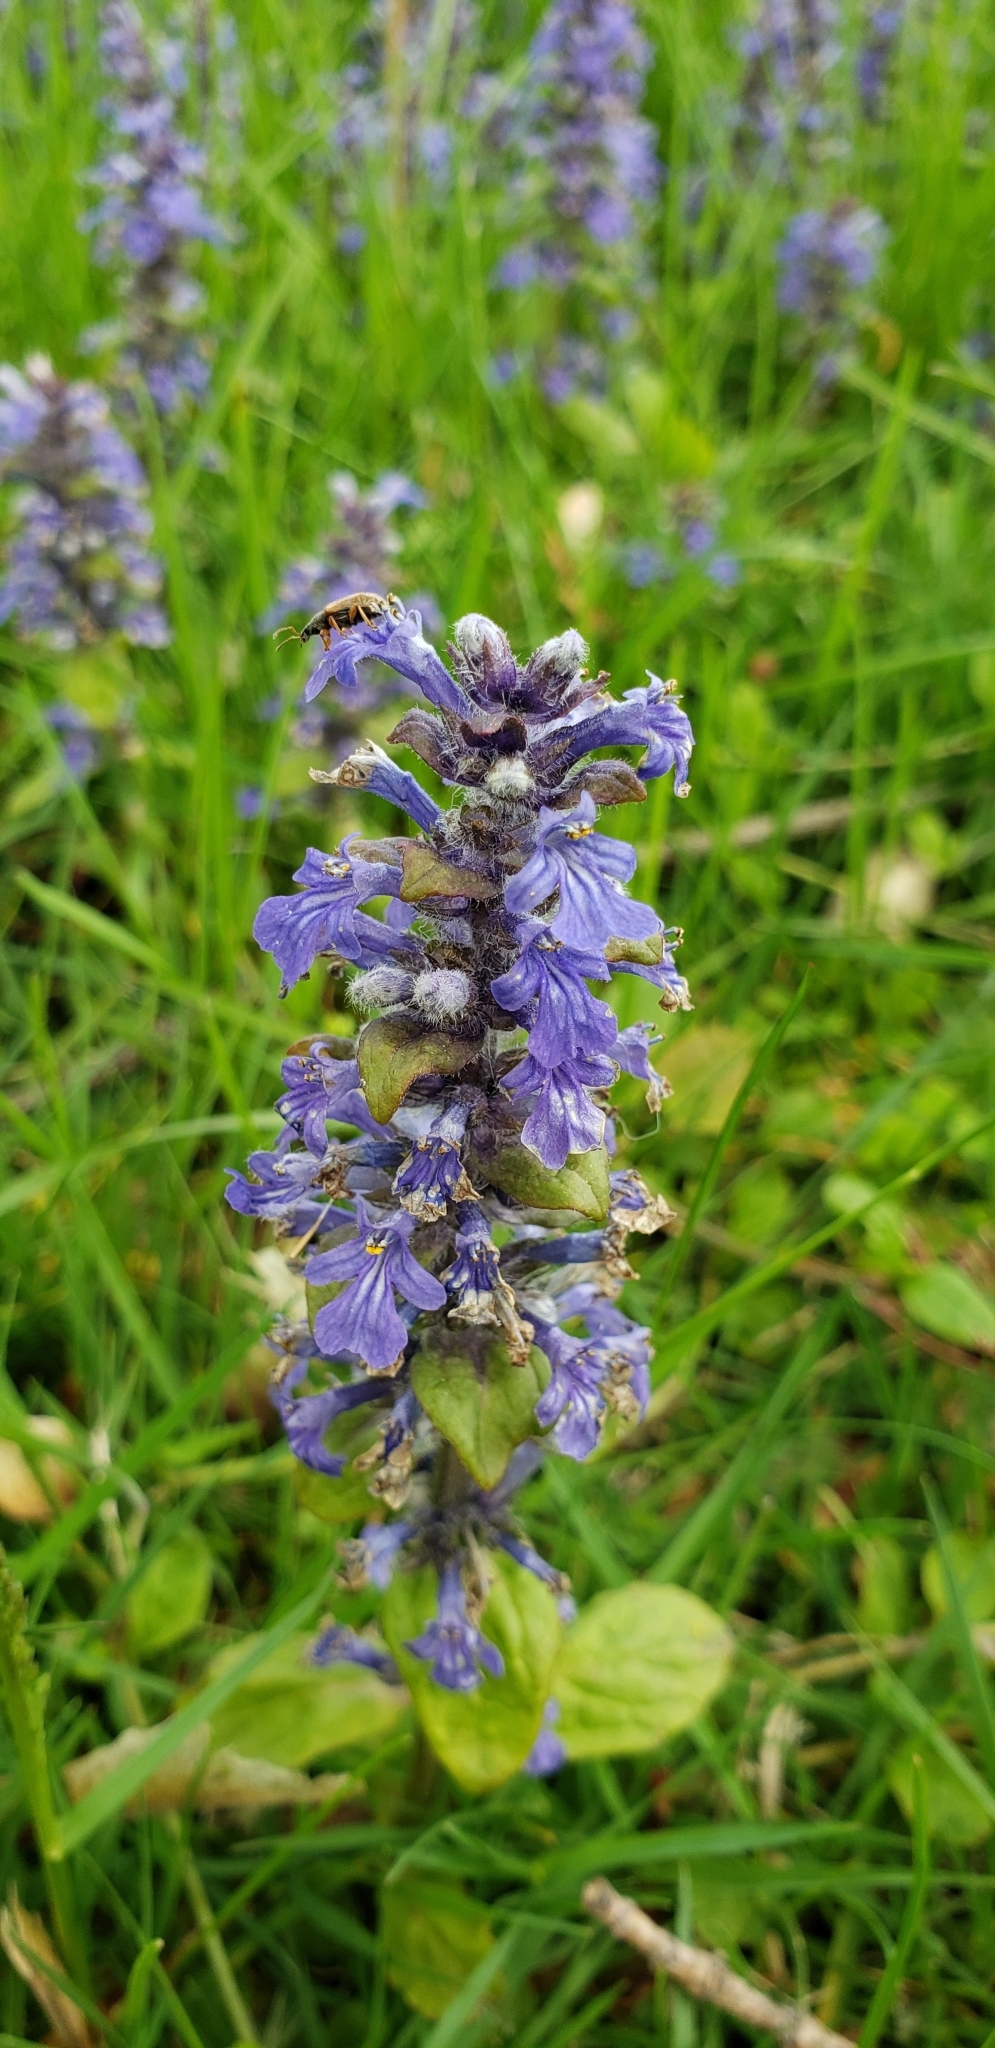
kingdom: Plantae
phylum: Tracheophyta
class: Magnoliopsida
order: Lamiales
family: Lamiaceae
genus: Ajuga
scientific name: Ajuga reptans
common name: Bugle
